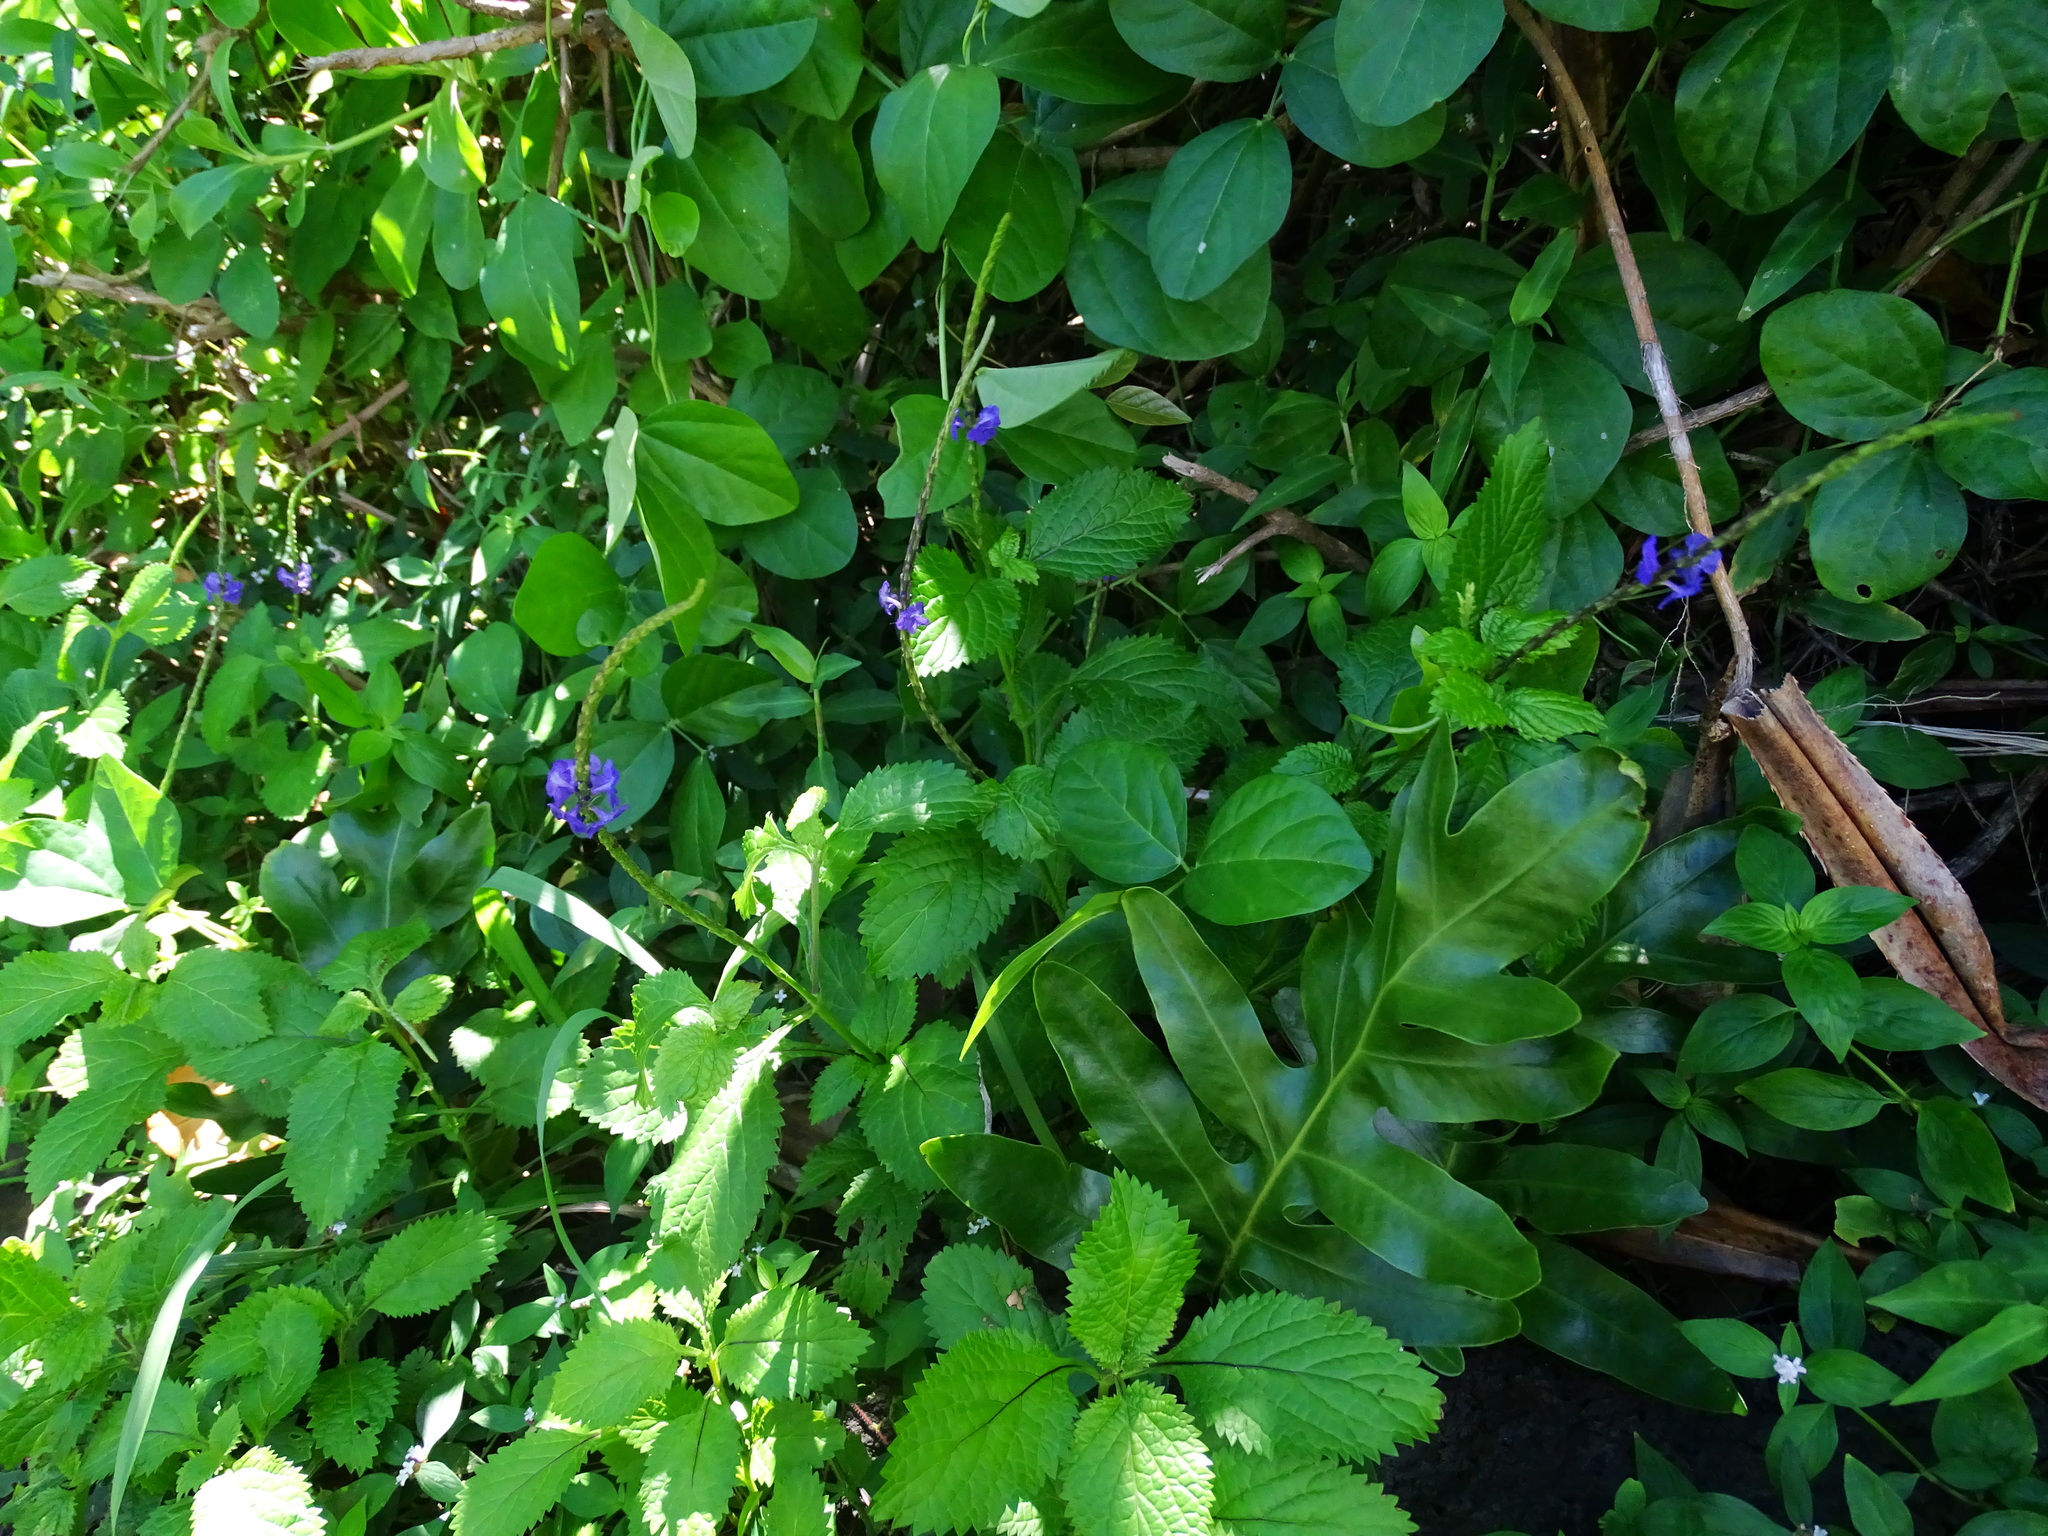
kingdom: Plantae
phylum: Tracheophyta
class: Magnoliopsida
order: Lamiales
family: Verbenaceae
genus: Stachytarpheta
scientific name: Stachytarpheta cayennensis
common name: Cayenne porterweed
